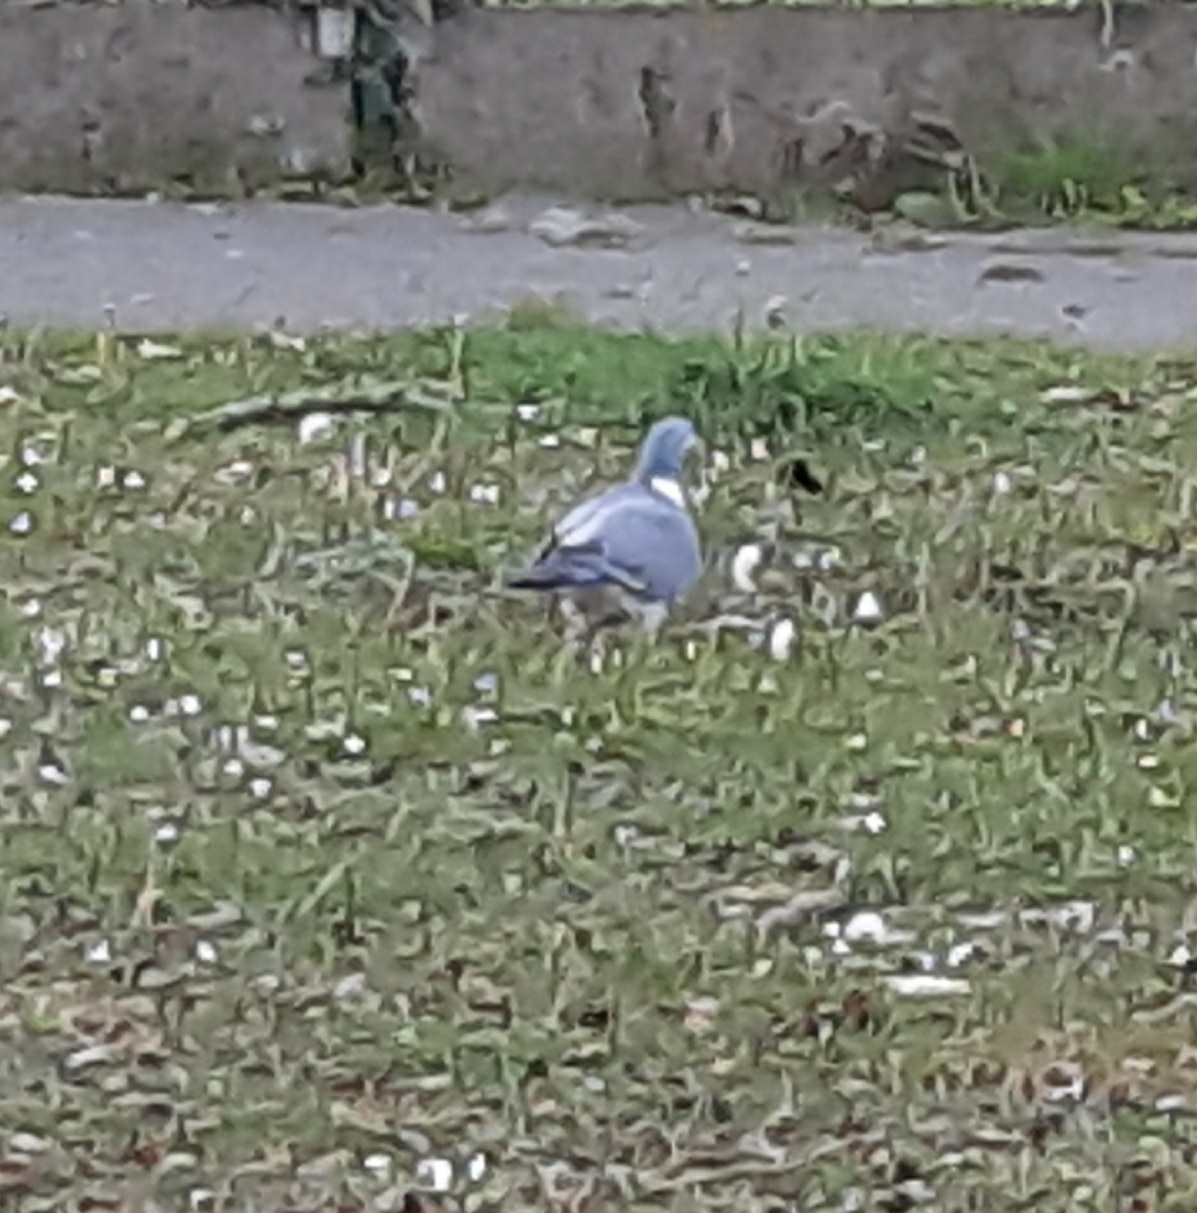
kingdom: Animalia
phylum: Chordata
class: Aves
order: Columbiformes
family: Columbidae
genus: Columba
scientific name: Columba palumbus
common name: Common wood pigeon
